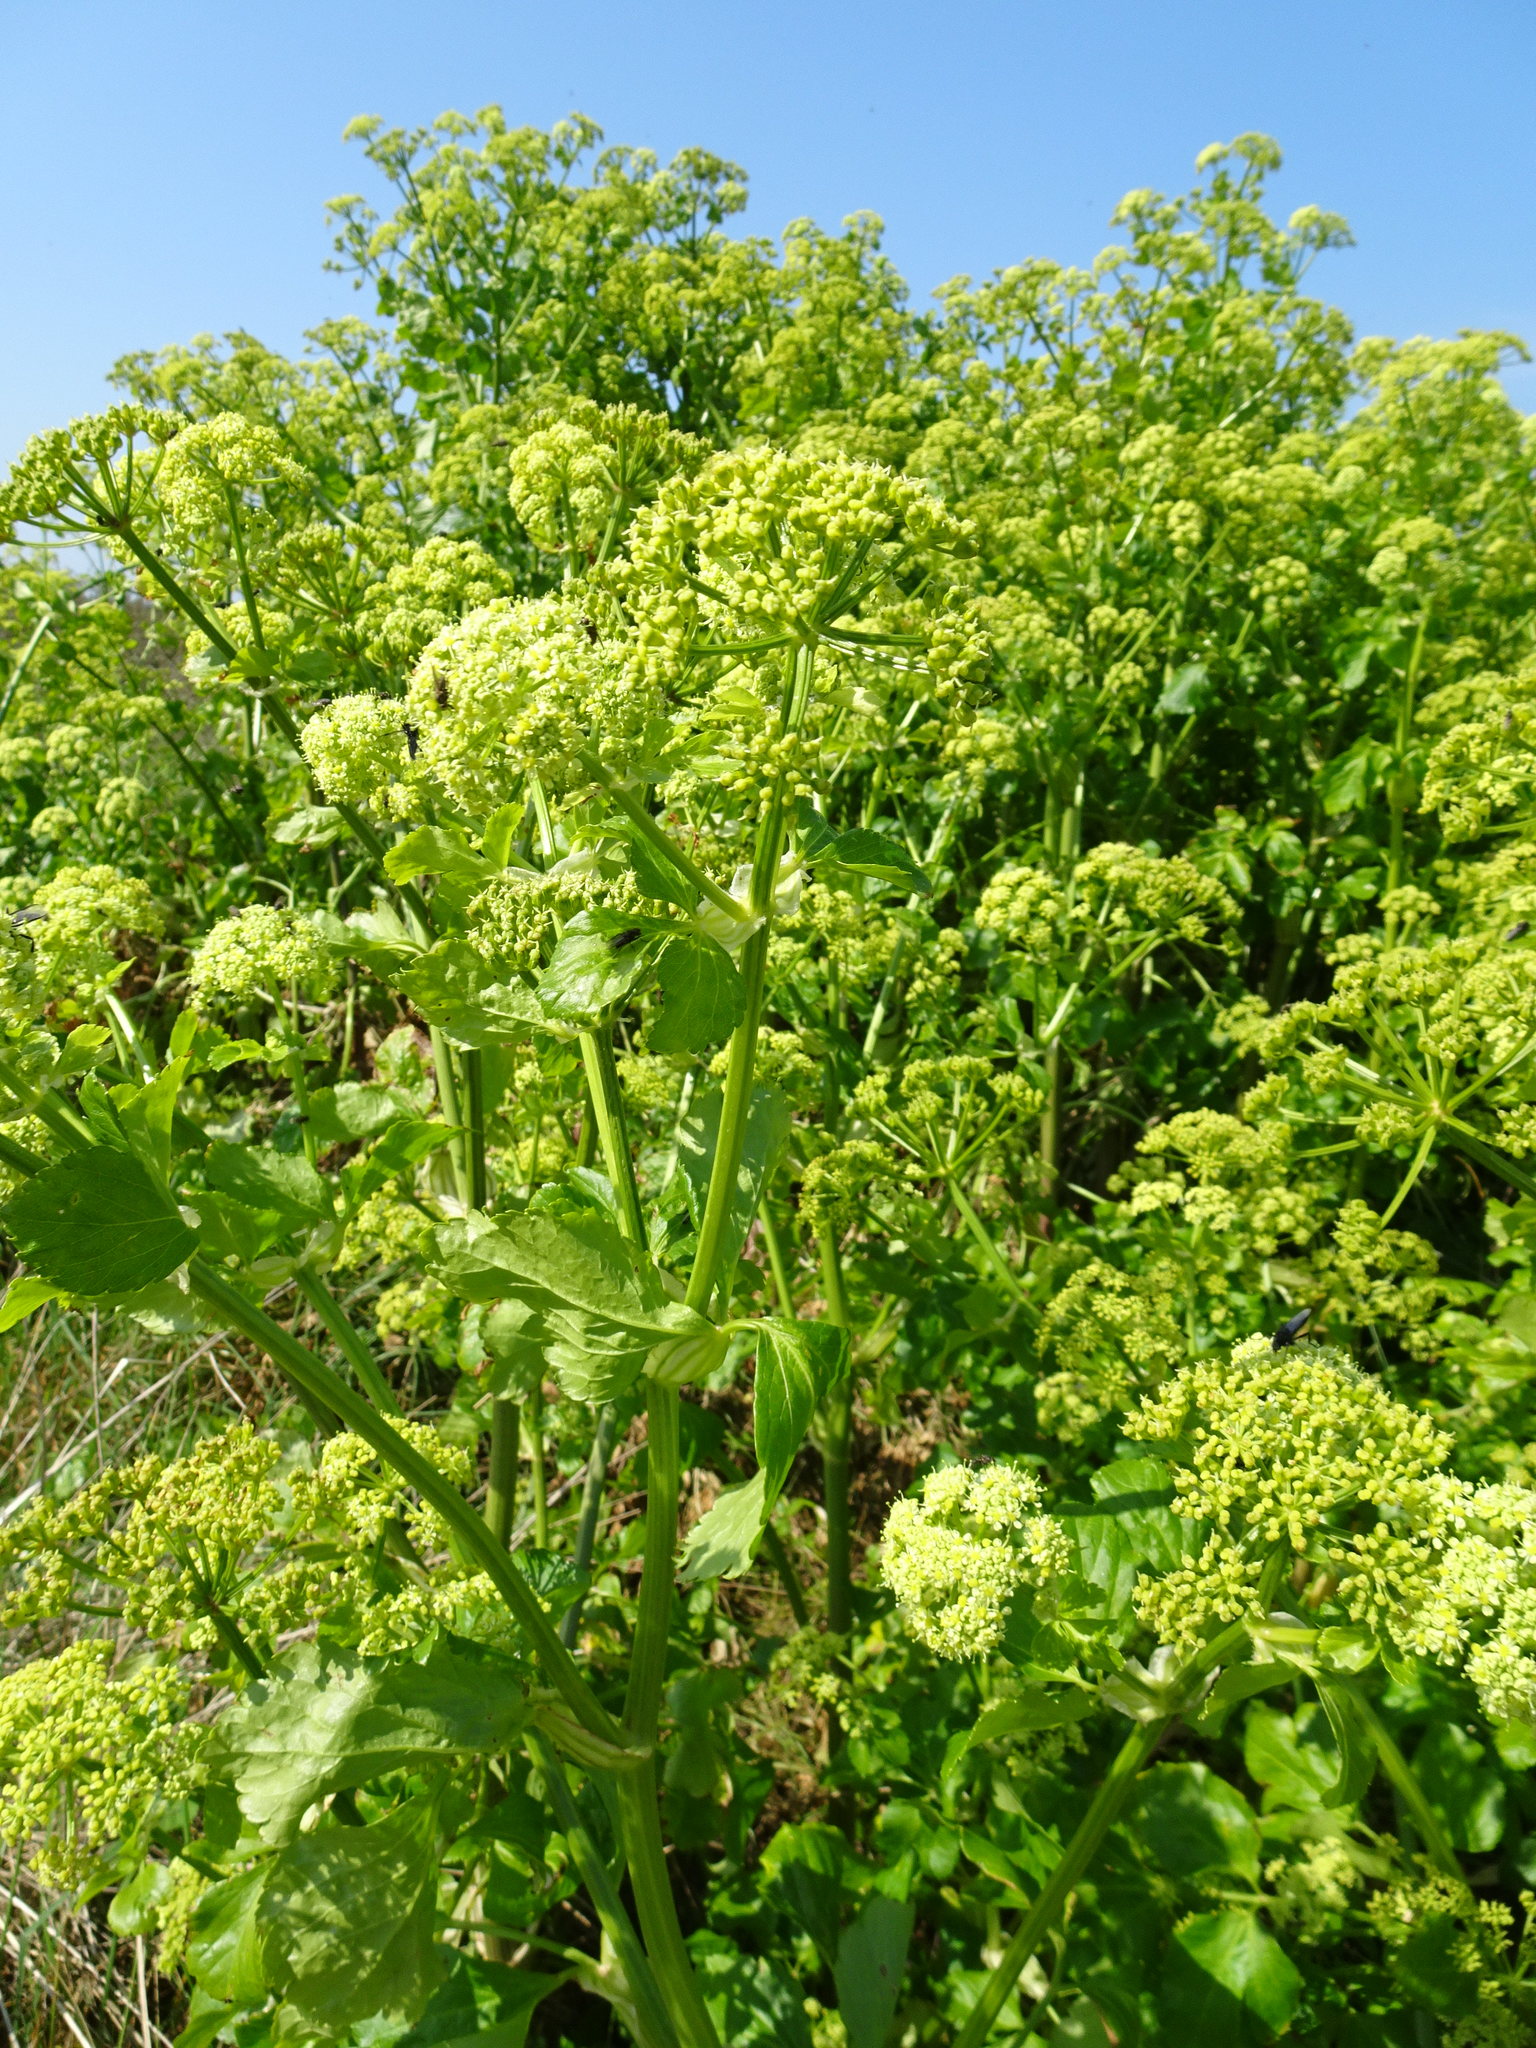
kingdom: Plantae
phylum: Tracheophyta
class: Magnoliopsida
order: Apiales
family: Apiaceae
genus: Smyrnium
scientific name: Smyrnium olusatrum
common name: Alexanders
